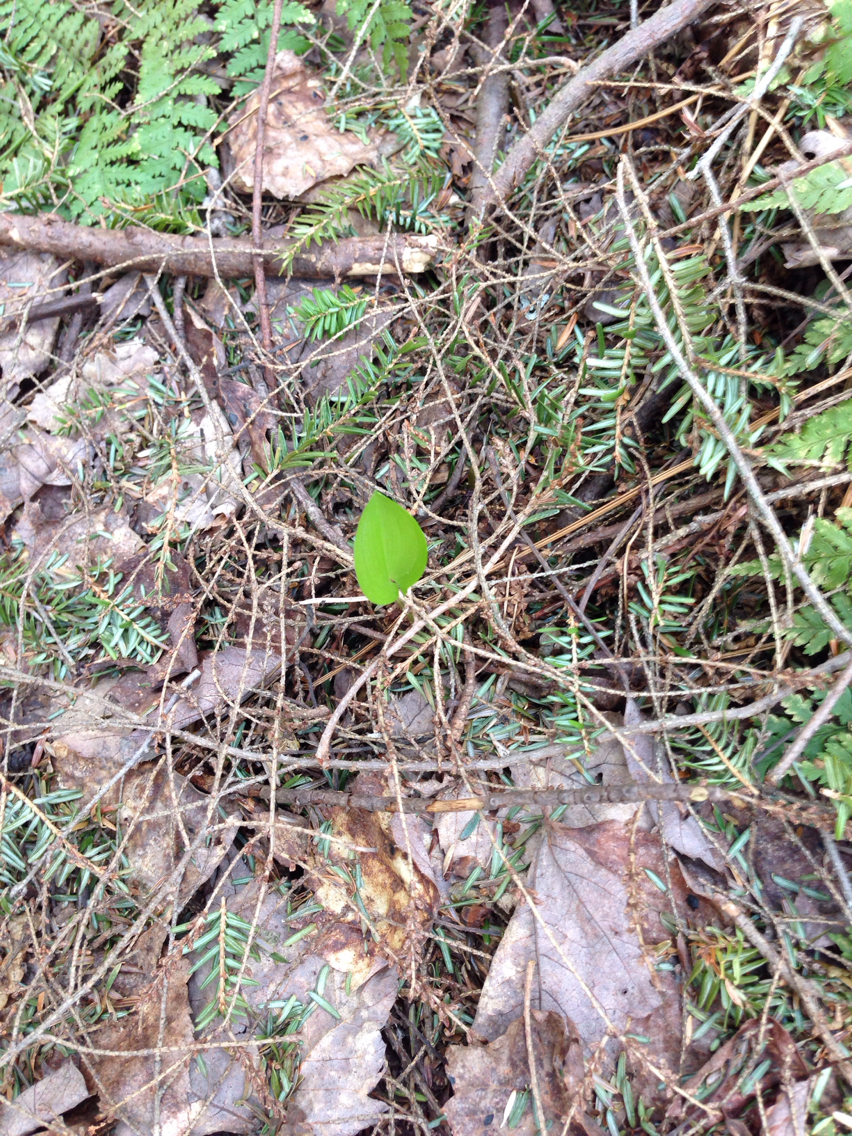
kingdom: Plantae
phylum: Tracheophyta
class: Liliopsida
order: Asparagales
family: Asparagaceae
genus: Maianthemum
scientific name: Maianthemum canadense
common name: False lily-of-the-valley
